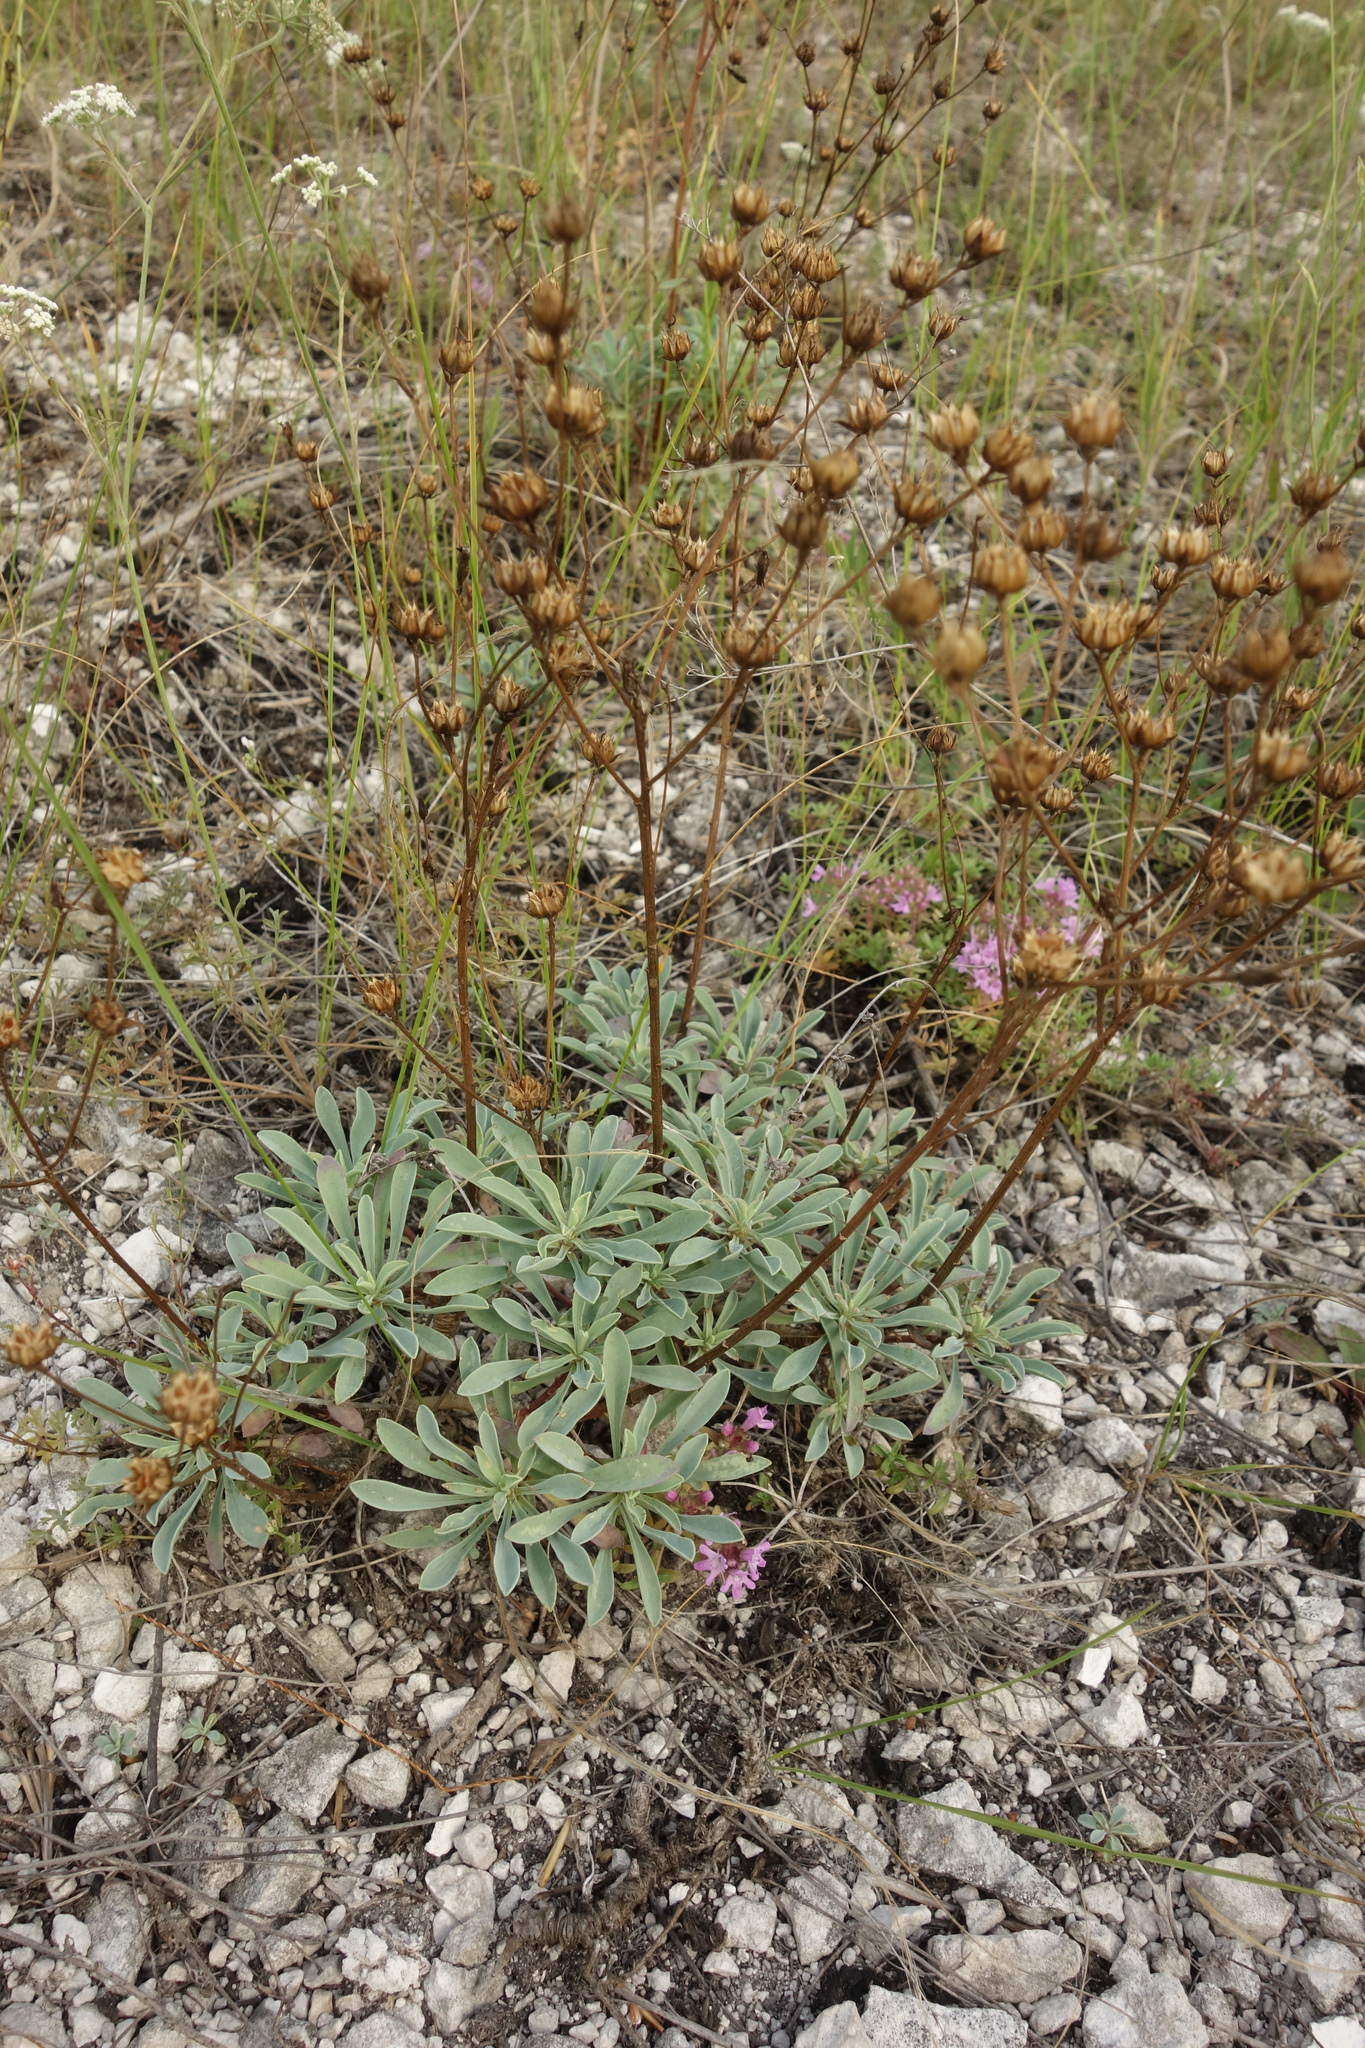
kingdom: Plantae
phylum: Tracheophyta
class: Magnoliopsida
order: Malpighiales
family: Linaceae
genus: Linum
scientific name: Linum ucranicum
